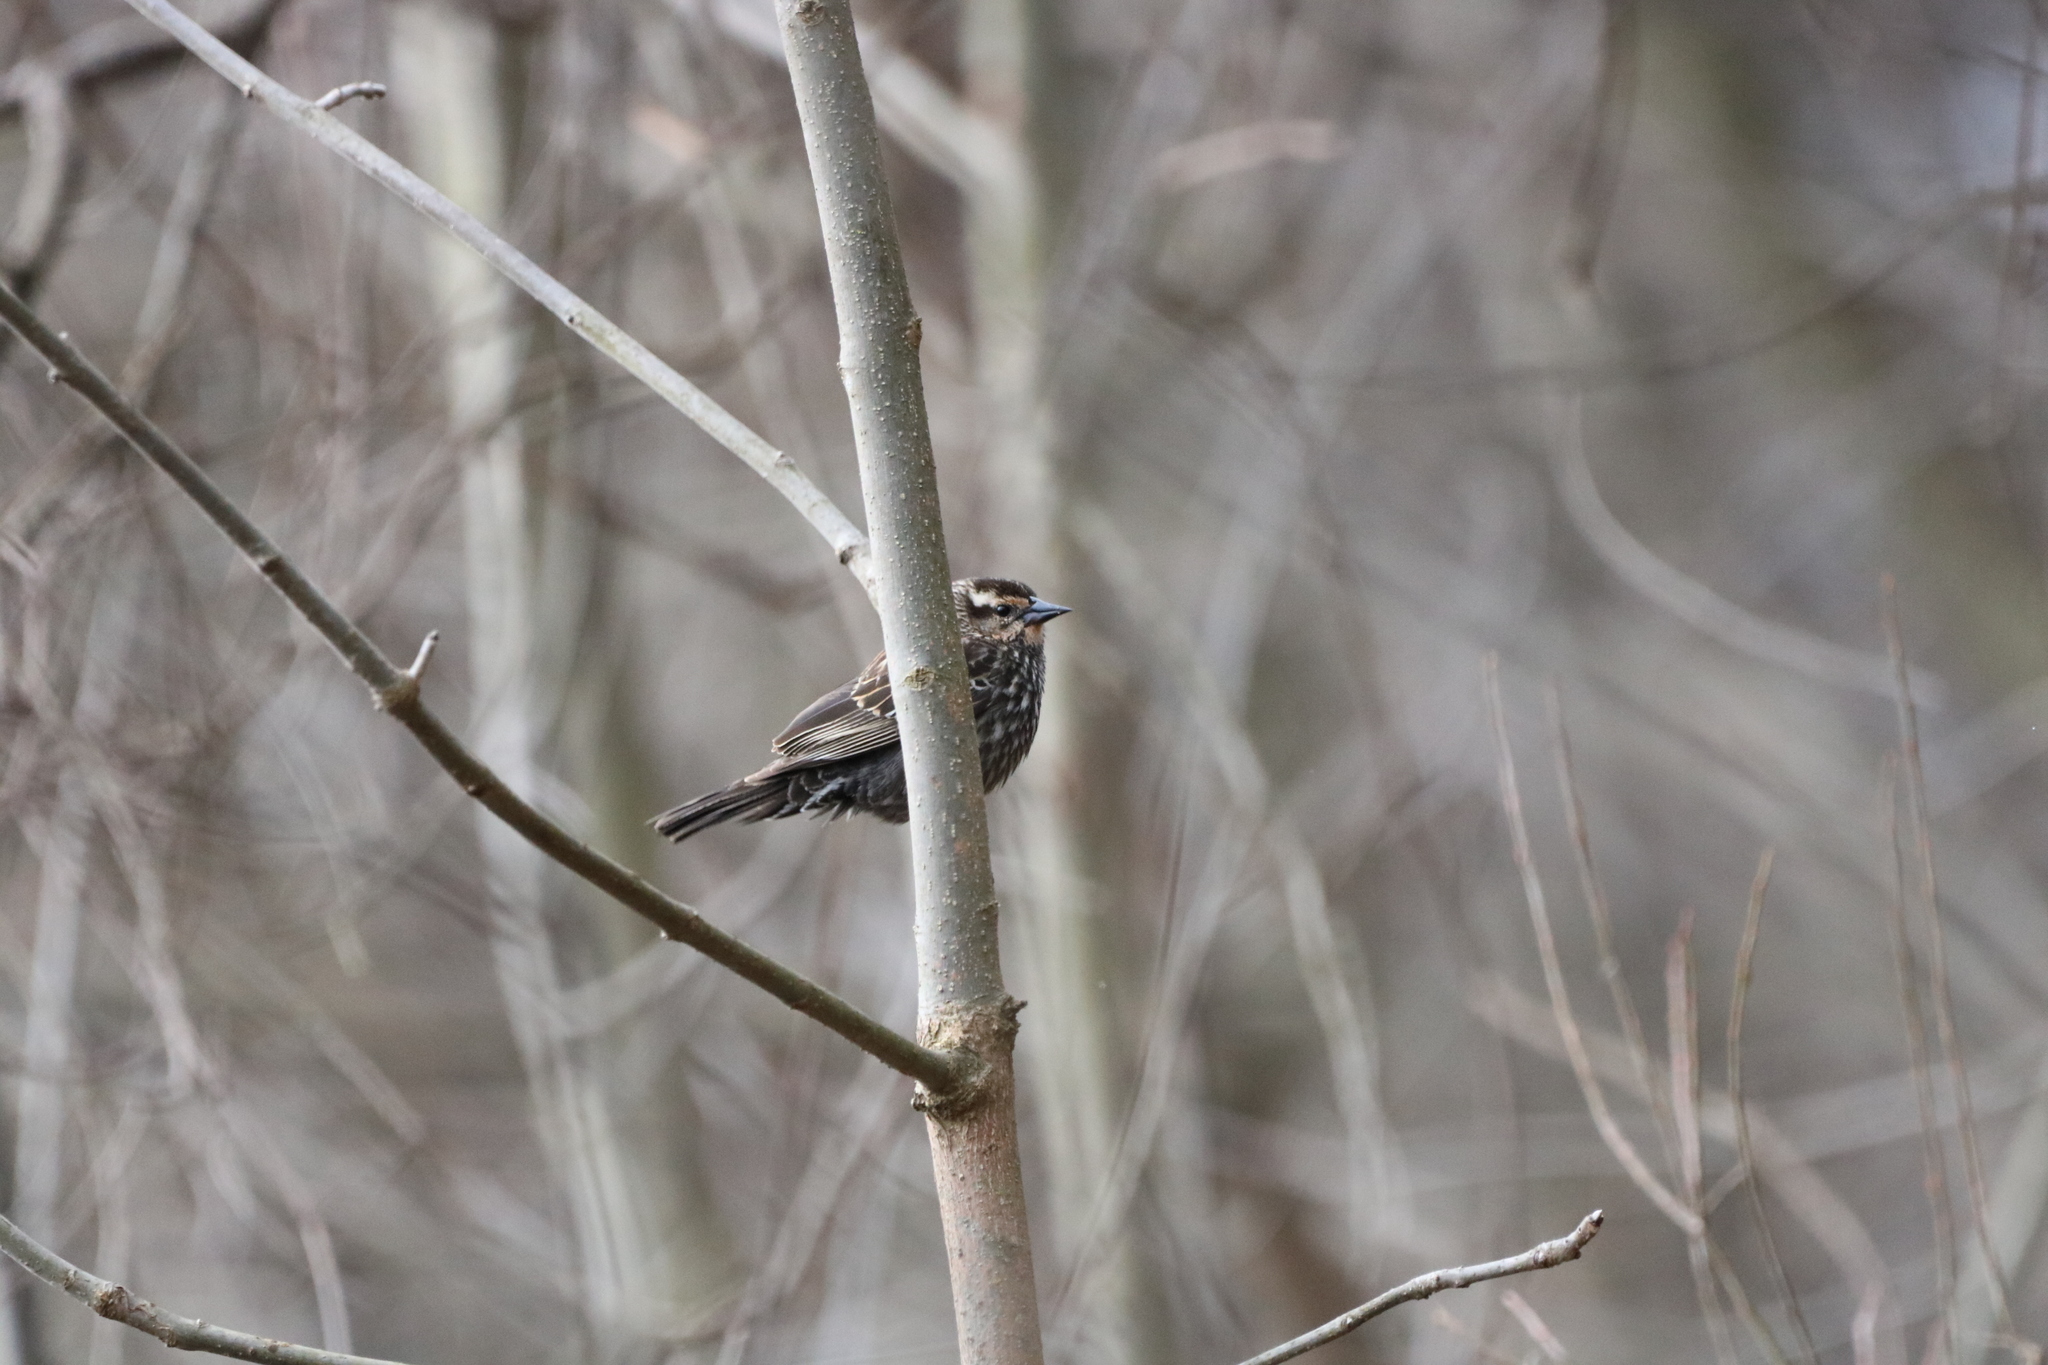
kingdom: Animalia
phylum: Chordata
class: Aves
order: Passeriformes
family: Icteridae
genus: Agelaius
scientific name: Agelaius phoeniceus
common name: Red-winged blackbird
